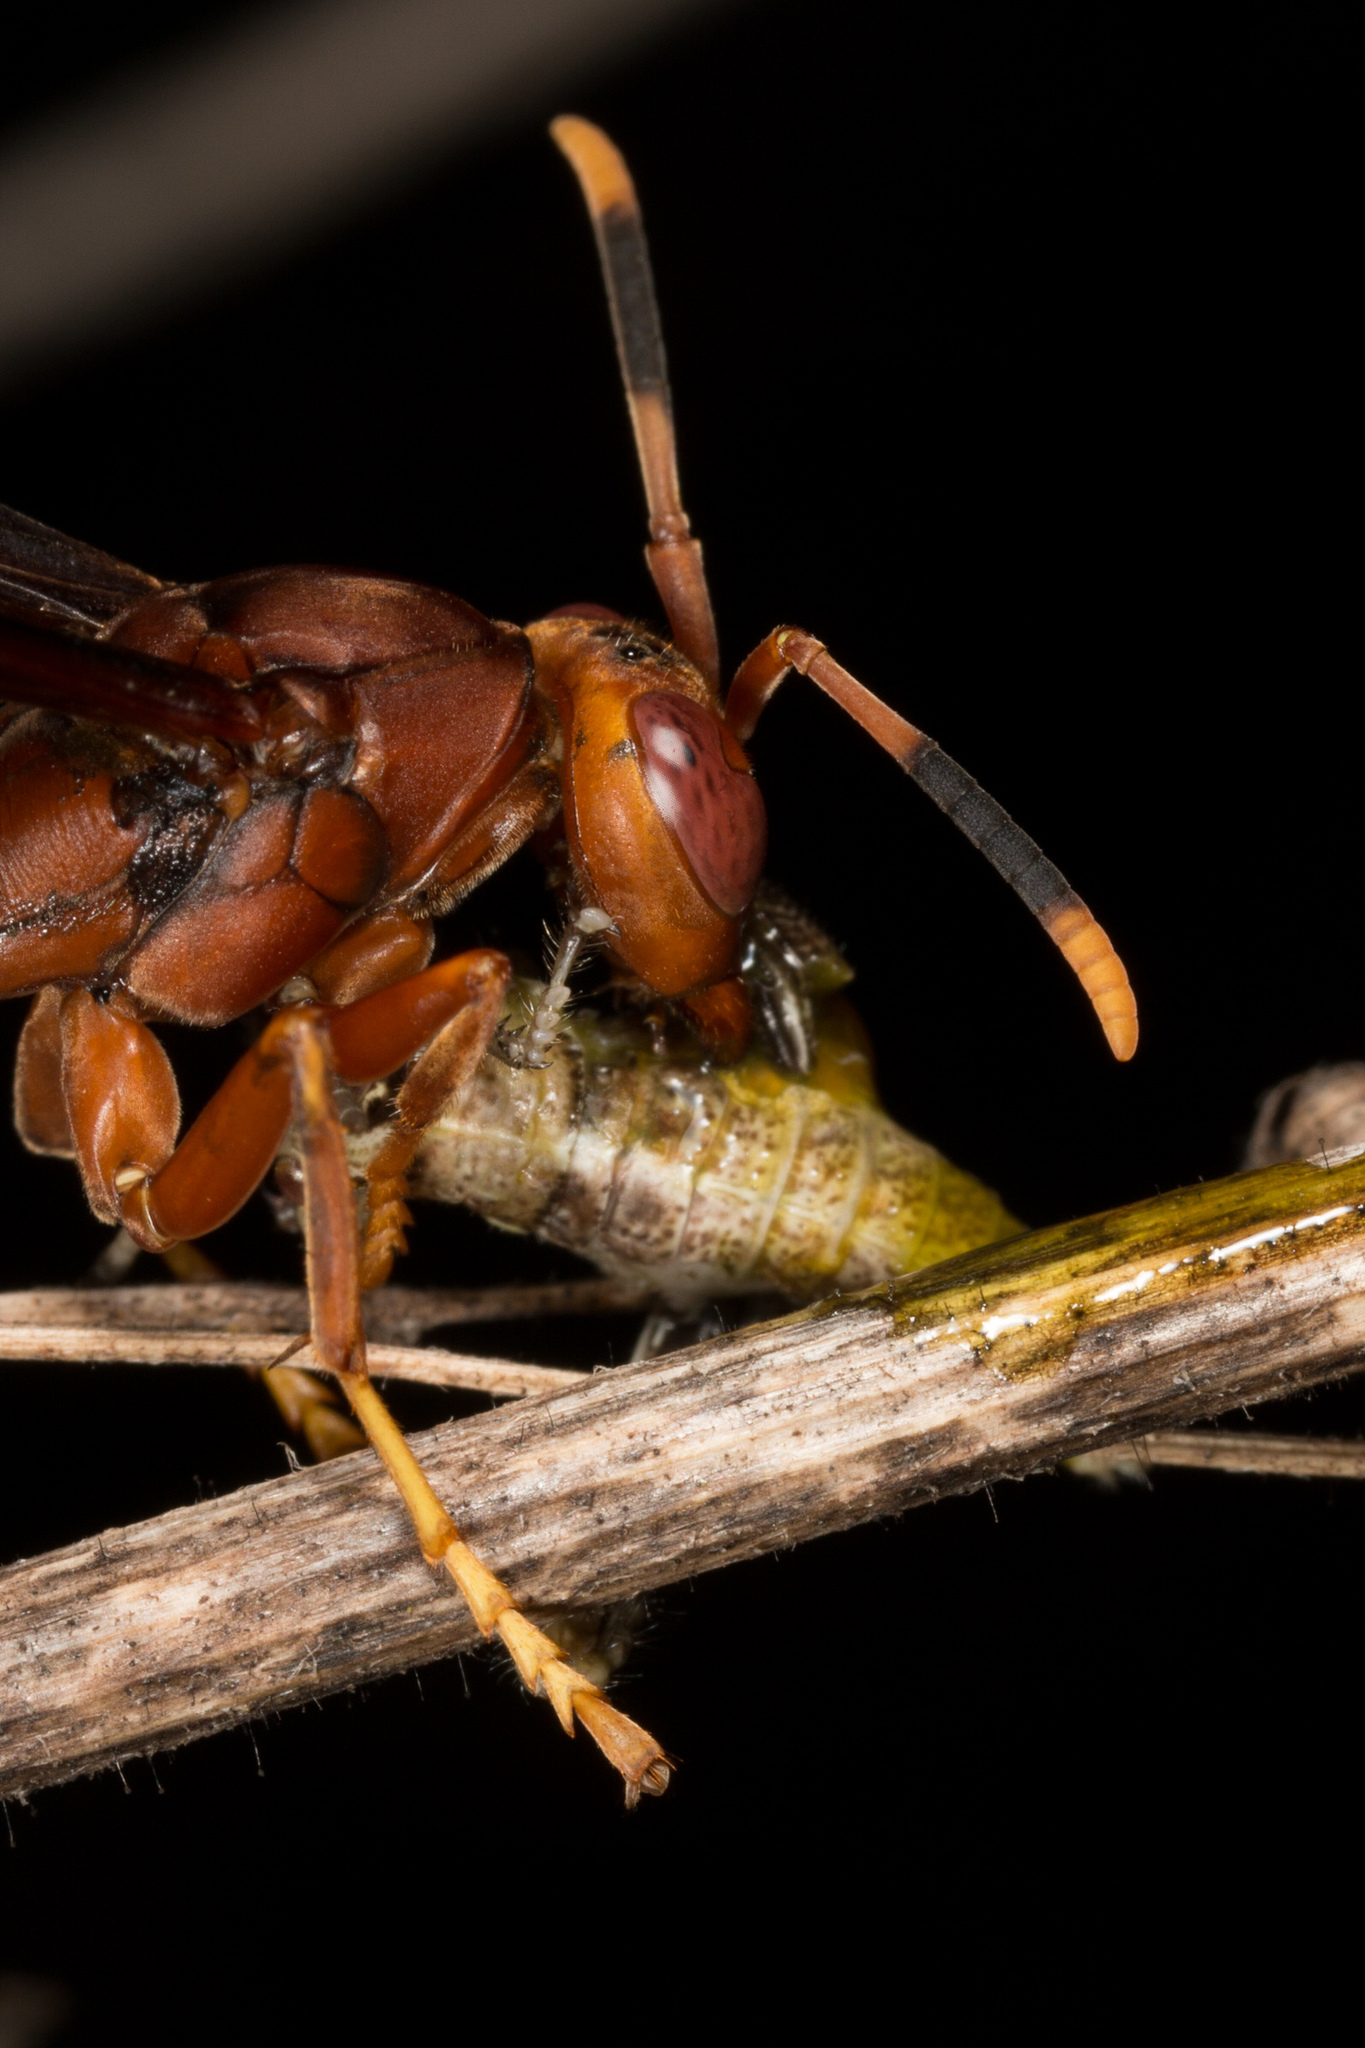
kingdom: Animalia
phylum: Arthropoda
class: Insecta
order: Hymenoptera
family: Eumenidae
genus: Polistes
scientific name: Polistes canadensis
